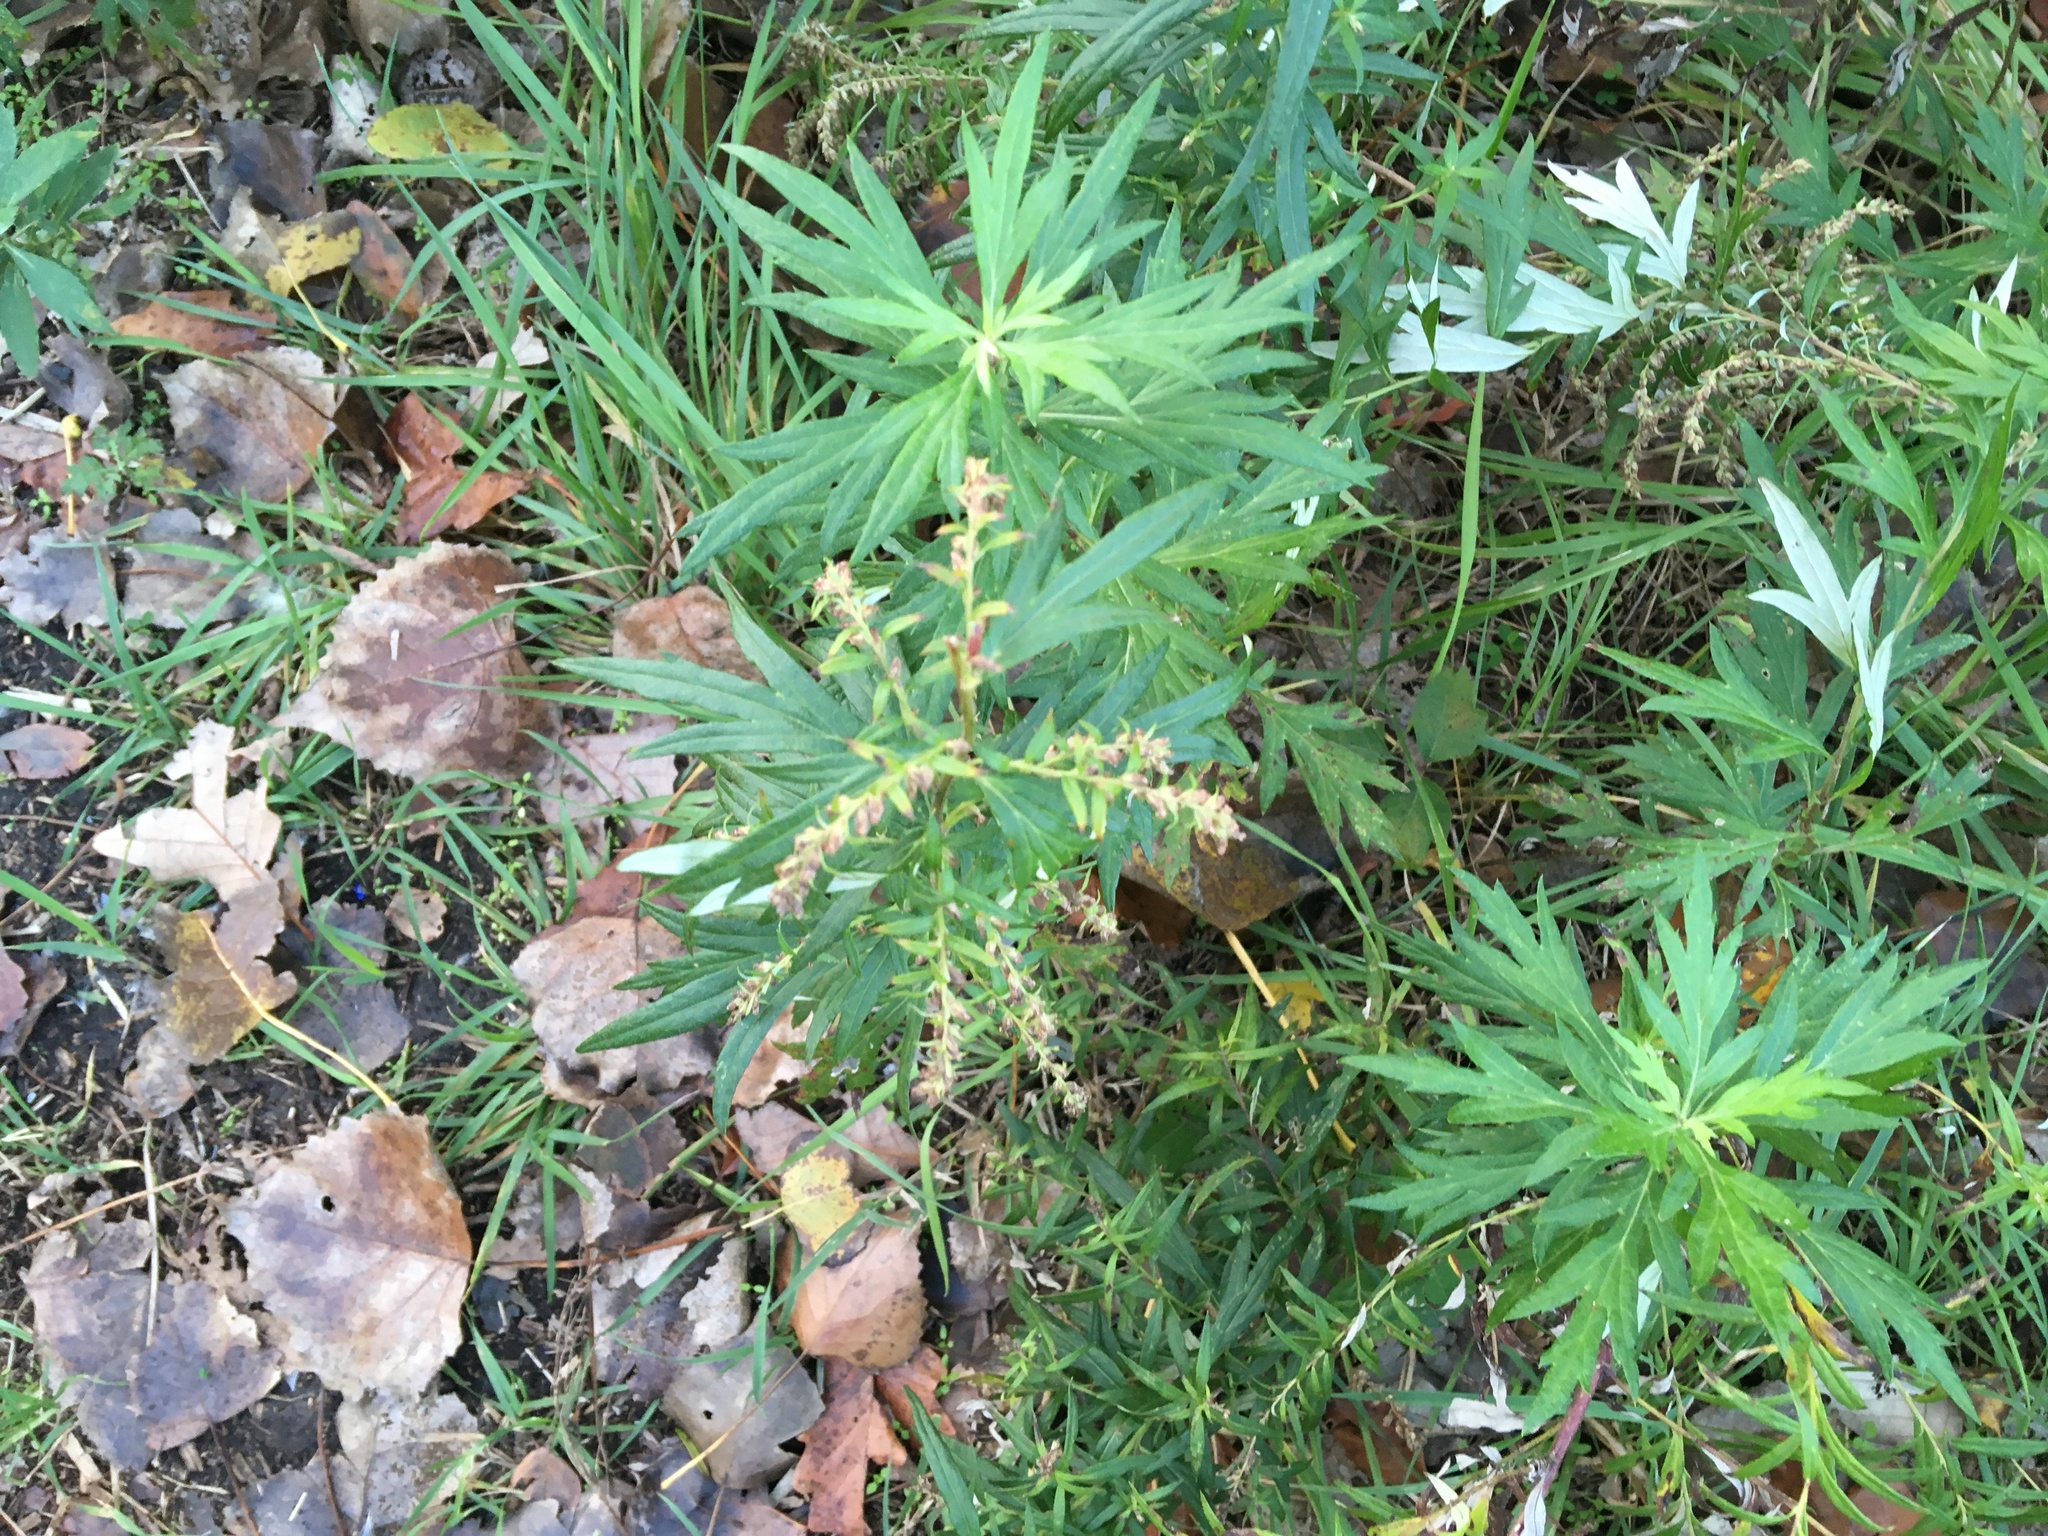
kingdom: Plantae
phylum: Tracheophyta
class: Magnoliopsida
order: Asterales
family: Asteraceae
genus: Artemisia
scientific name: Artemisia vulgaris
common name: Mugwort
